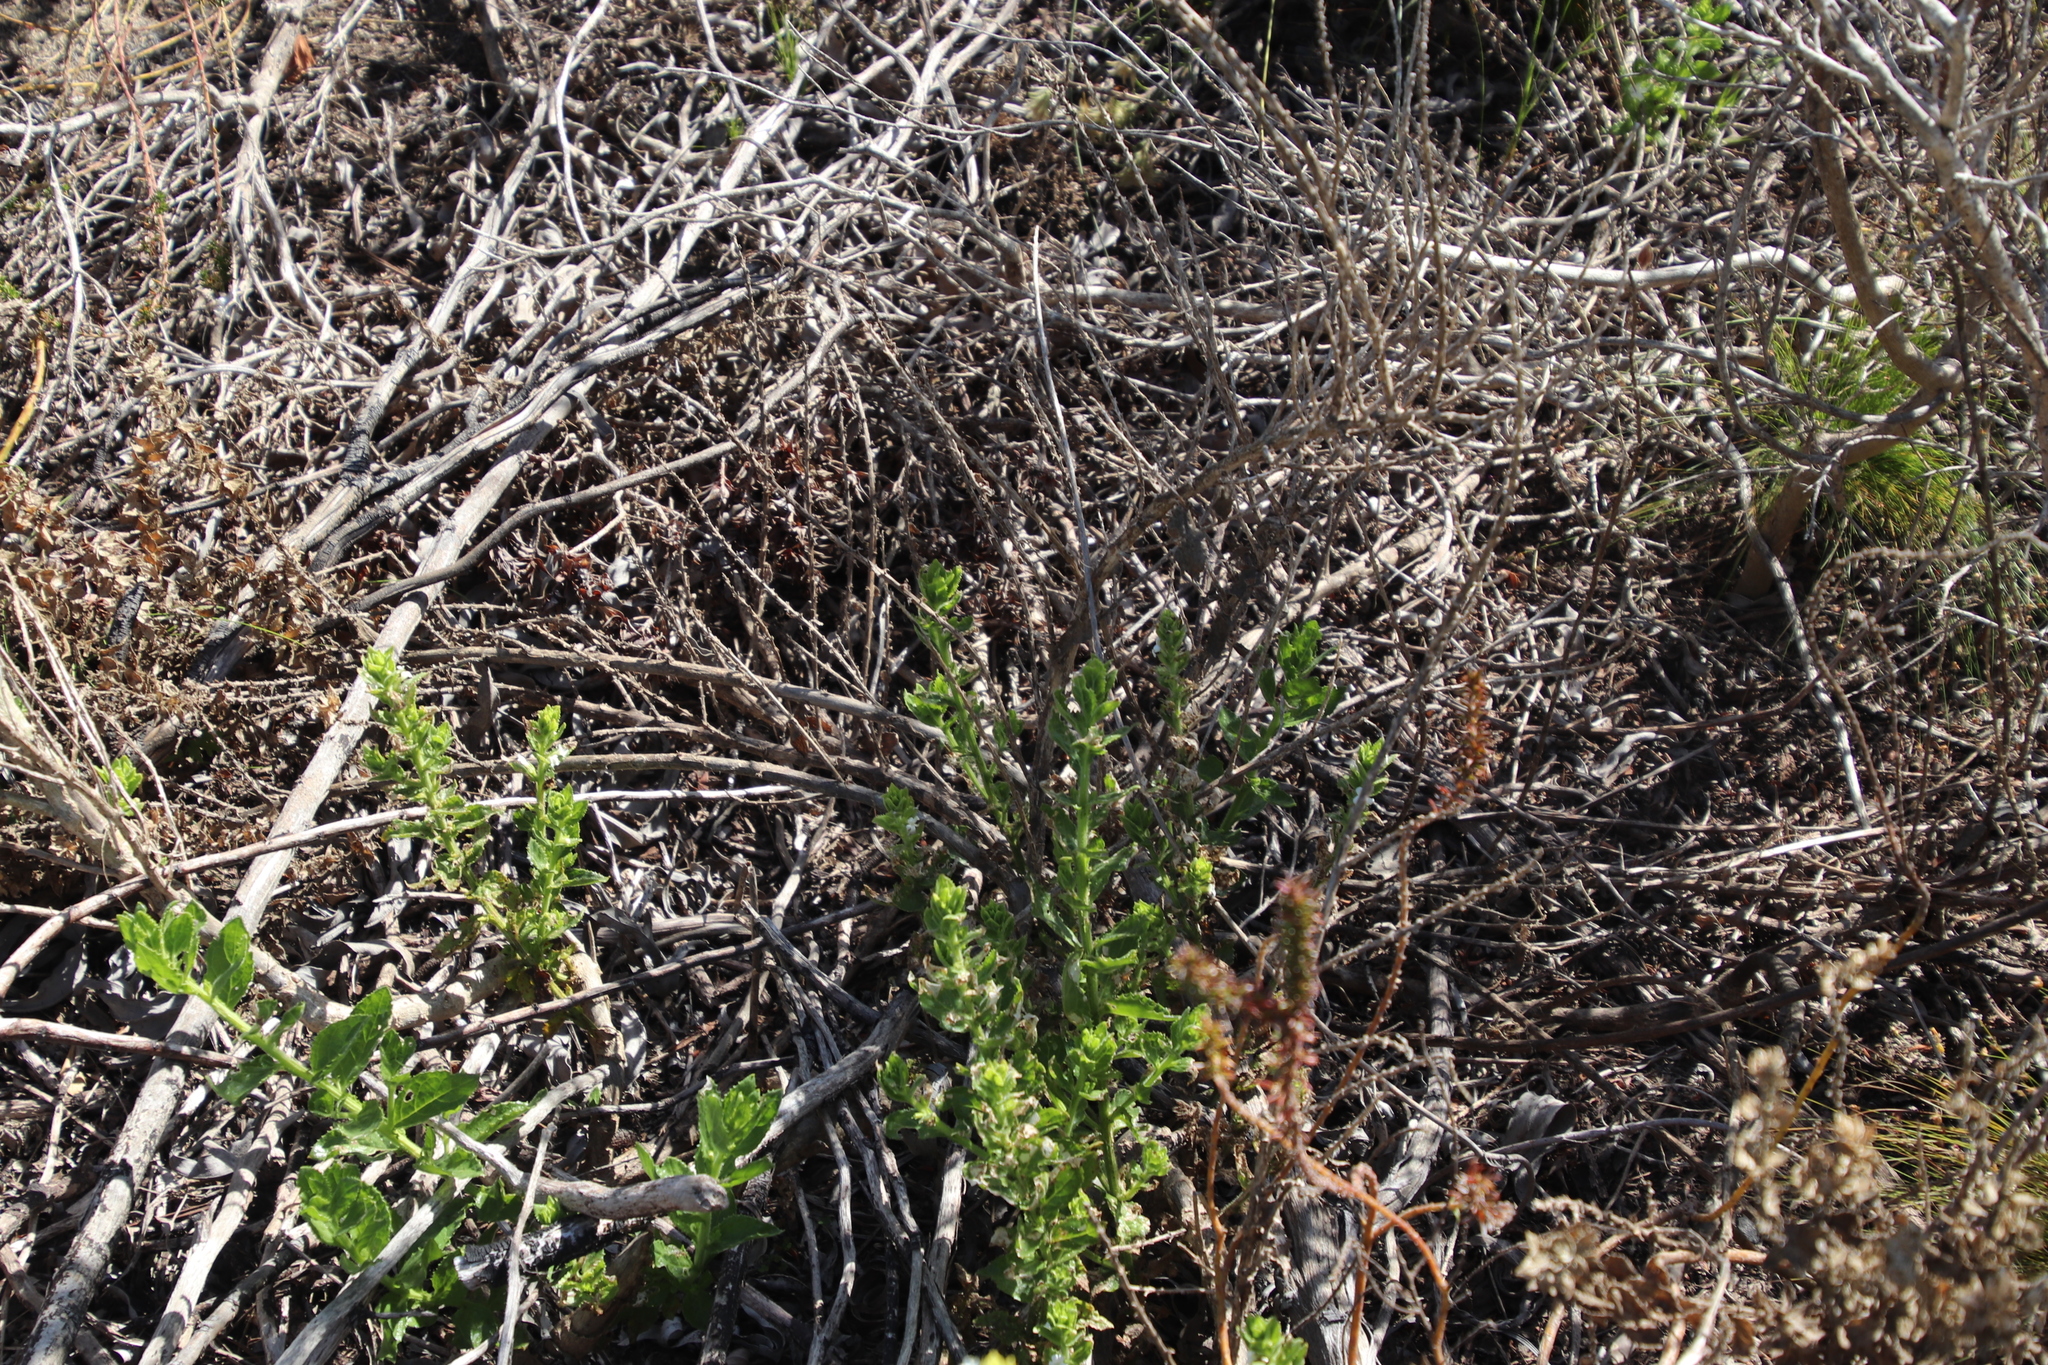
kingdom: Plantae
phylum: Tracheophyta
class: Magnoliopsida
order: Lamiales
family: Scrophulariaceae
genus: Oftia
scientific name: Oftia africana
